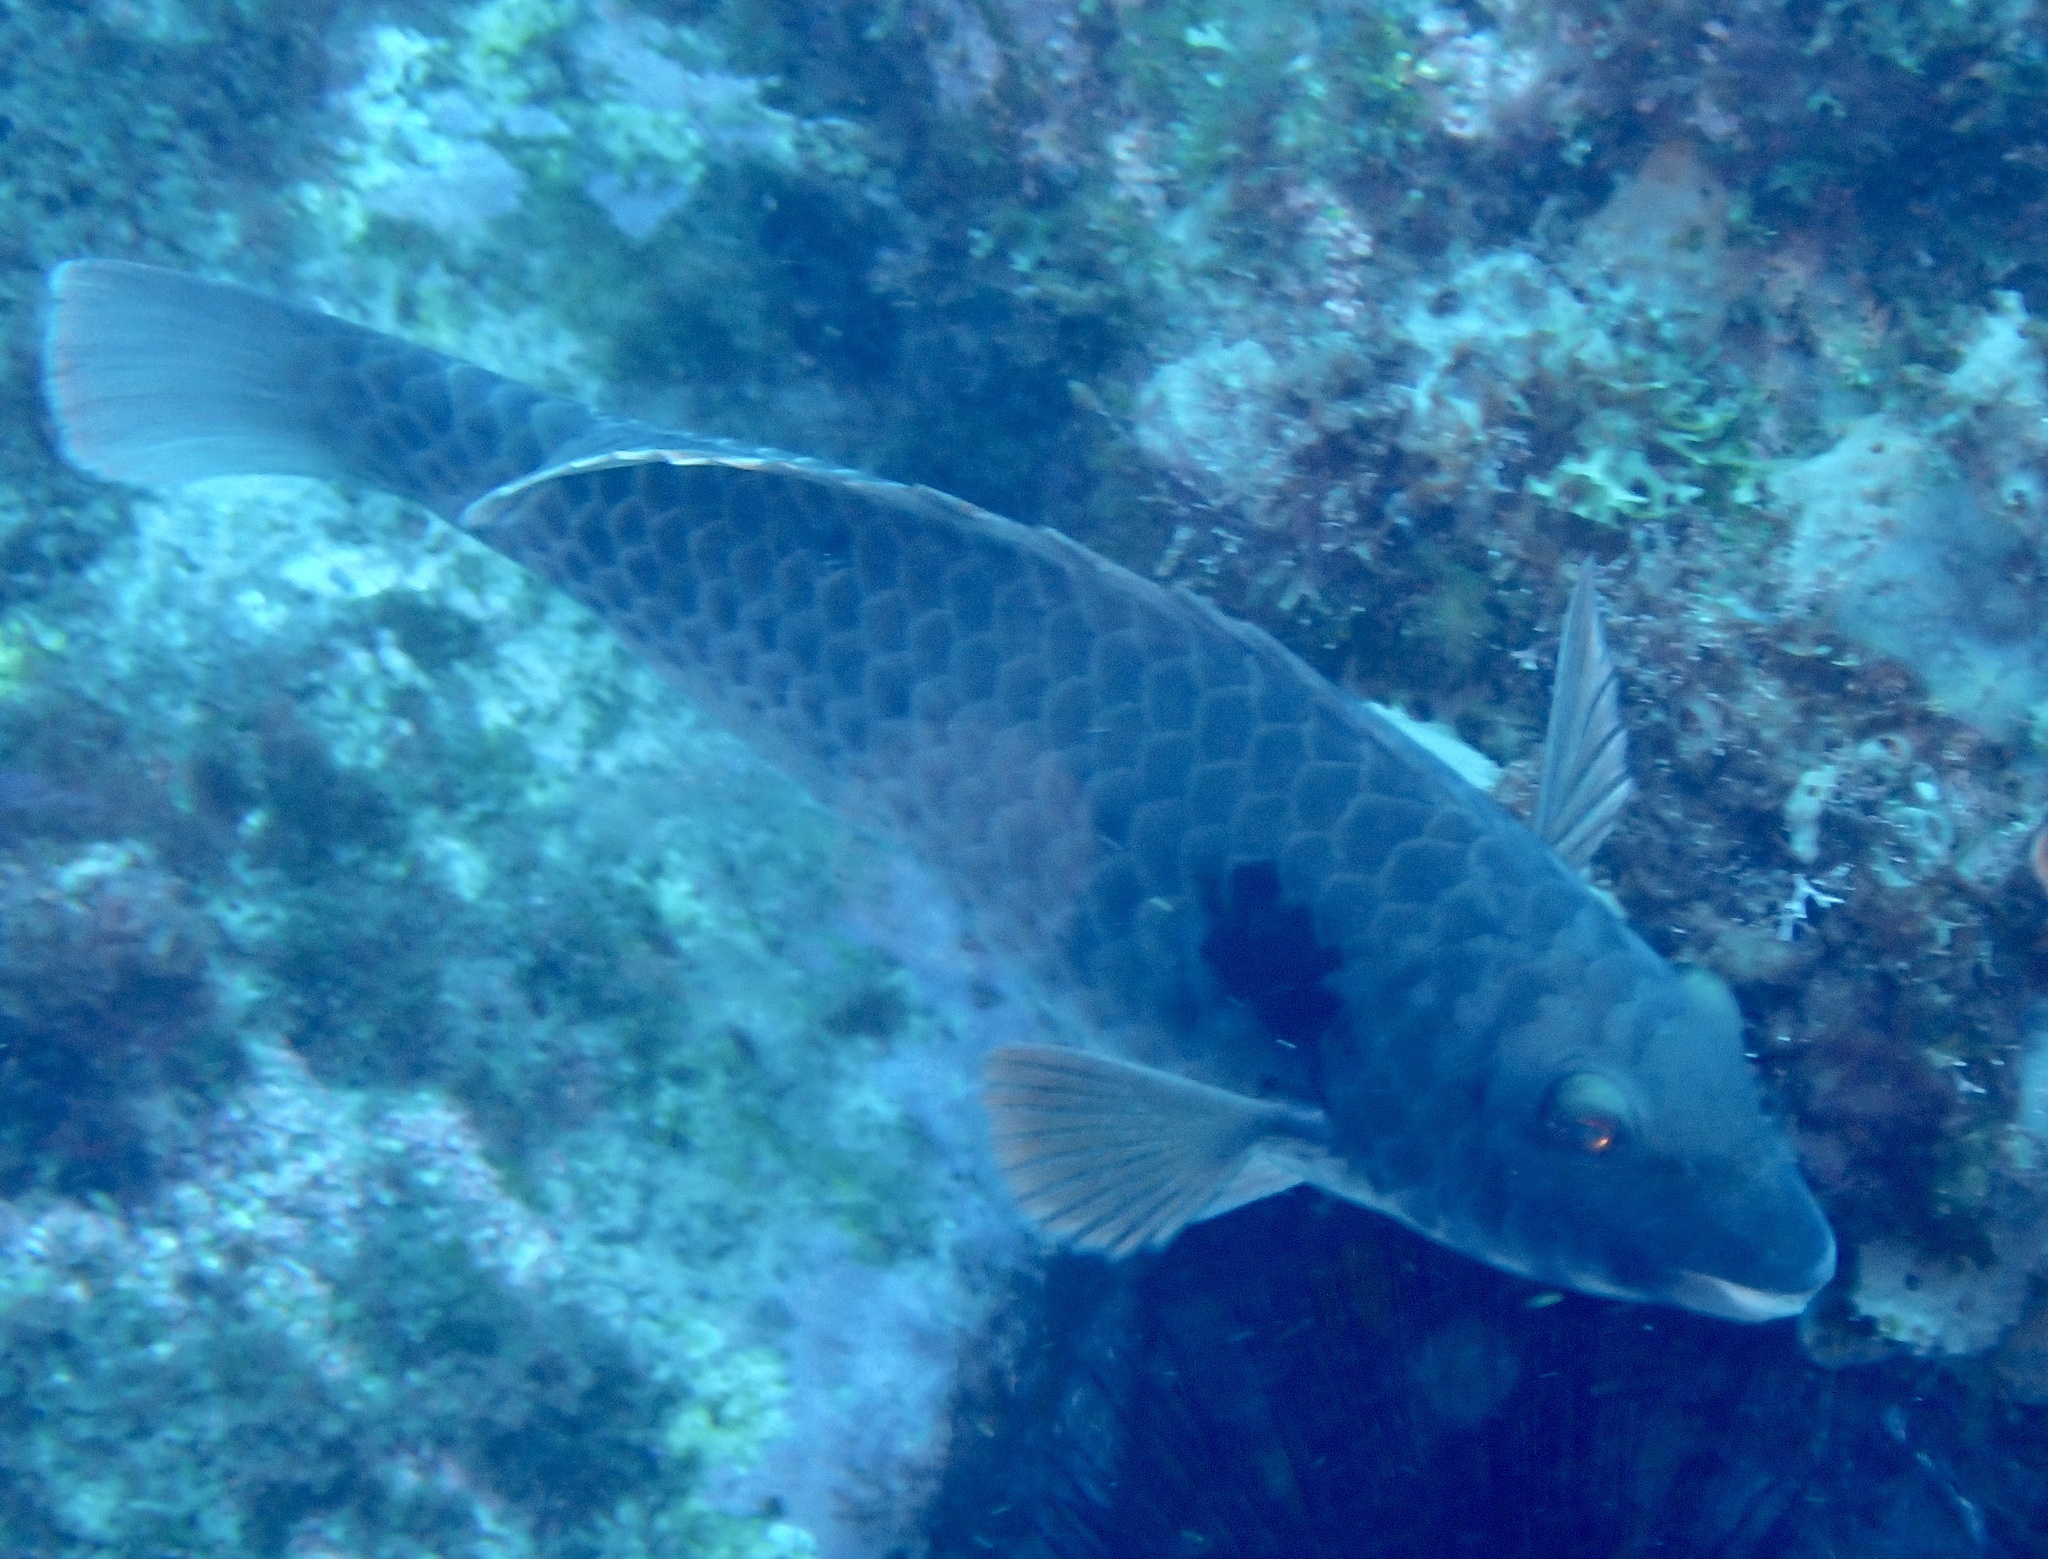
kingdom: Animalia
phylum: Chordata
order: Perciformes
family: Scaridae
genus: Sparisoma
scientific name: Sparisoma cretense
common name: Parrotfish
